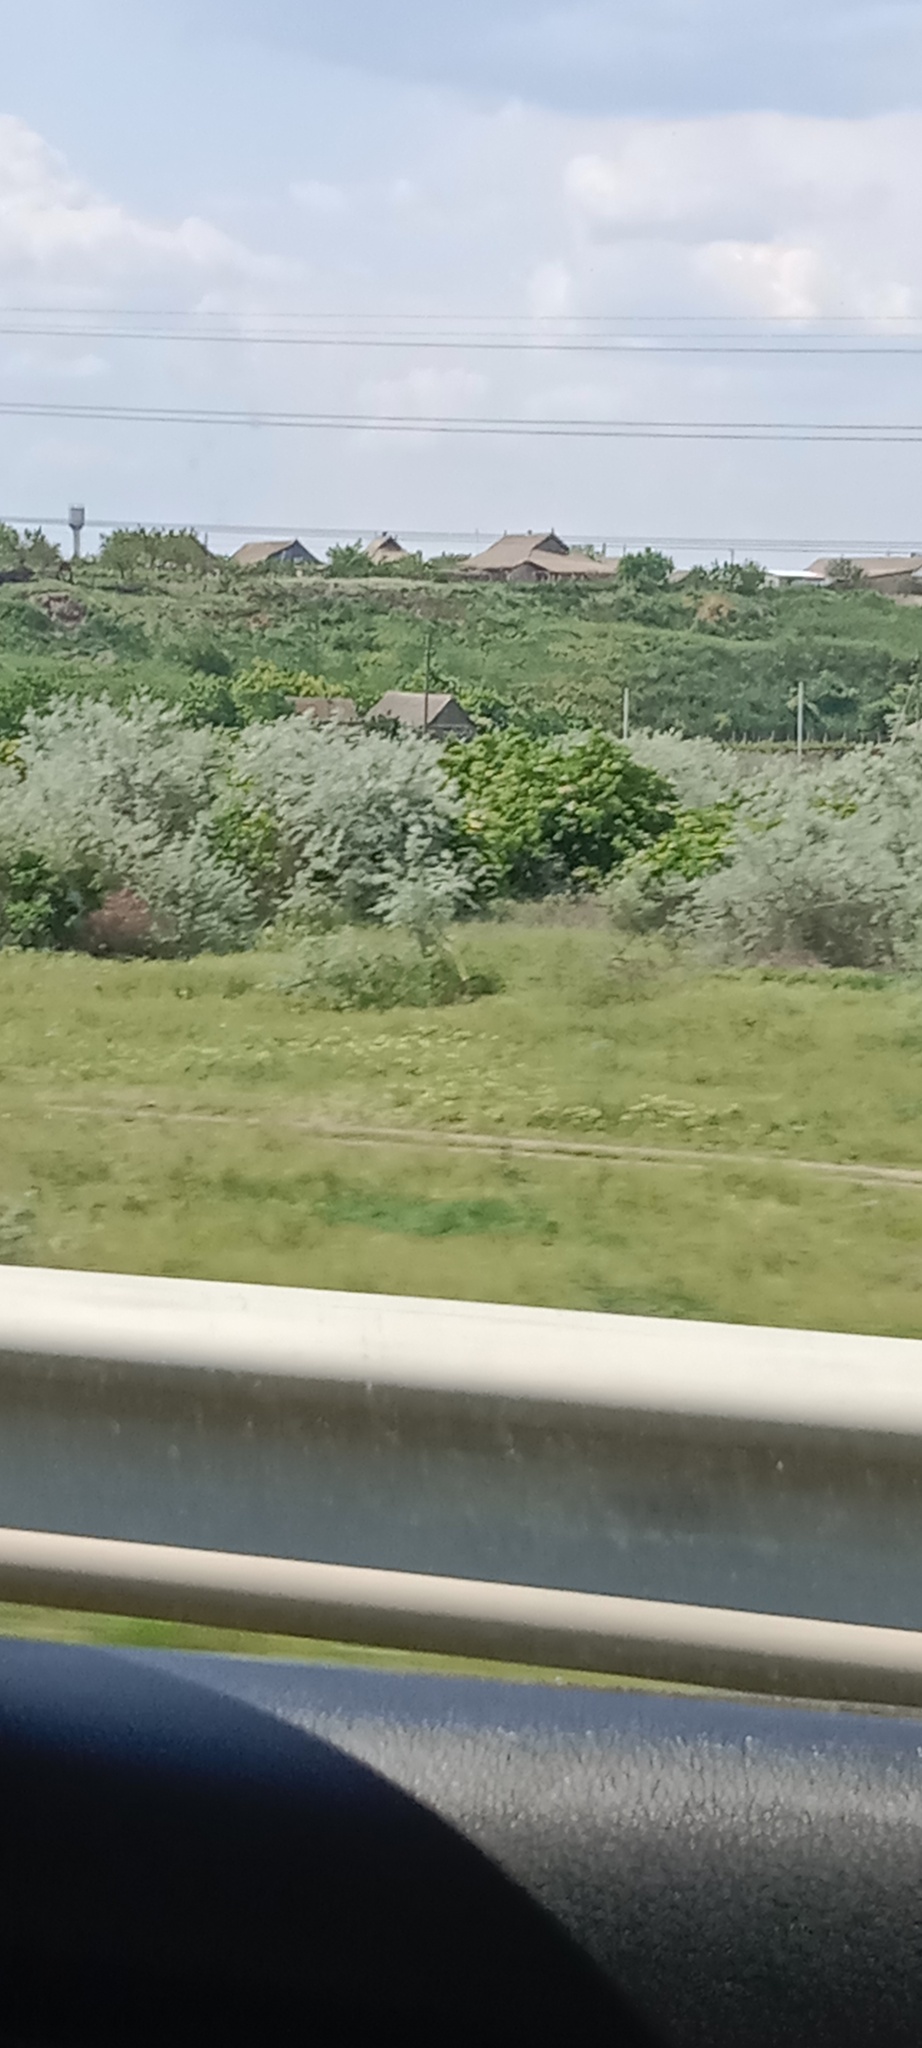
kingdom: Plantae
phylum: Tracheophyta
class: Magnoliopsida
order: Rosales
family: Elaeagnaceae
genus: Elaeagnus
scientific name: Elaeagnus angustifolia
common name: Russian olive
